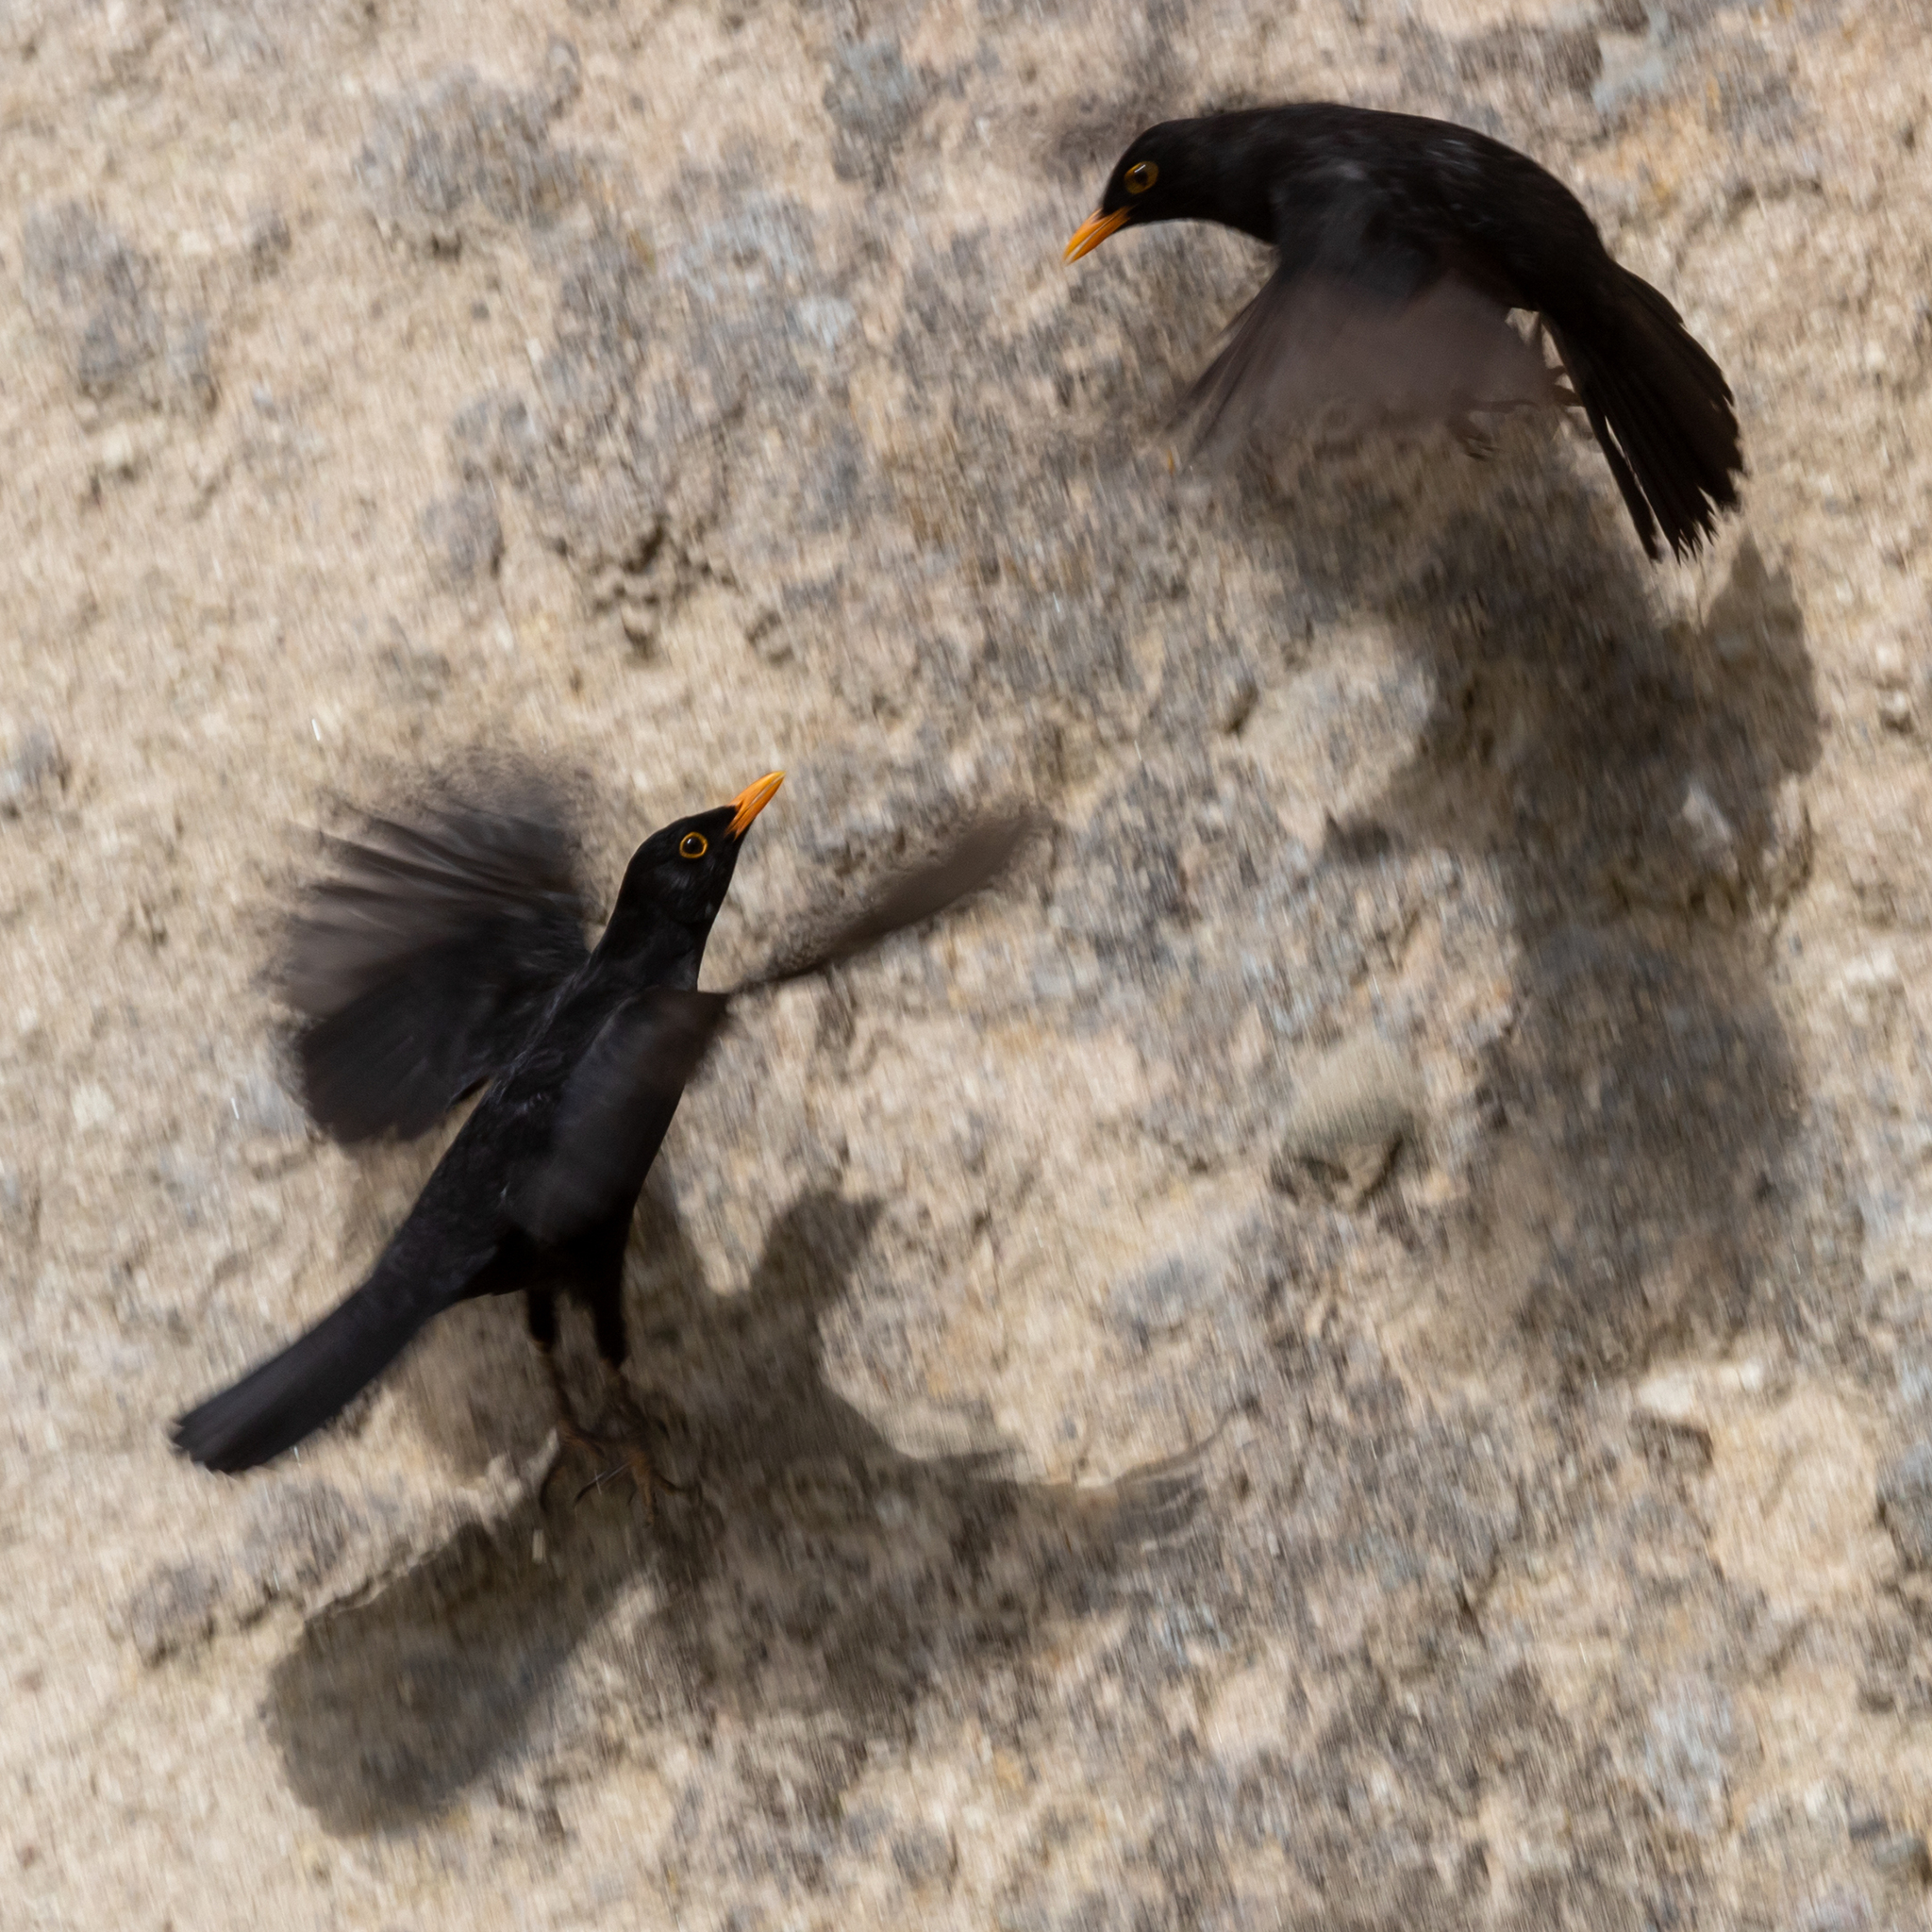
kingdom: Animalia
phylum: Chordata
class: Aves
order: Passeriformes
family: Turdidae
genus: Turdus
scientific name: Turdus merula
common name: Common blackbird
